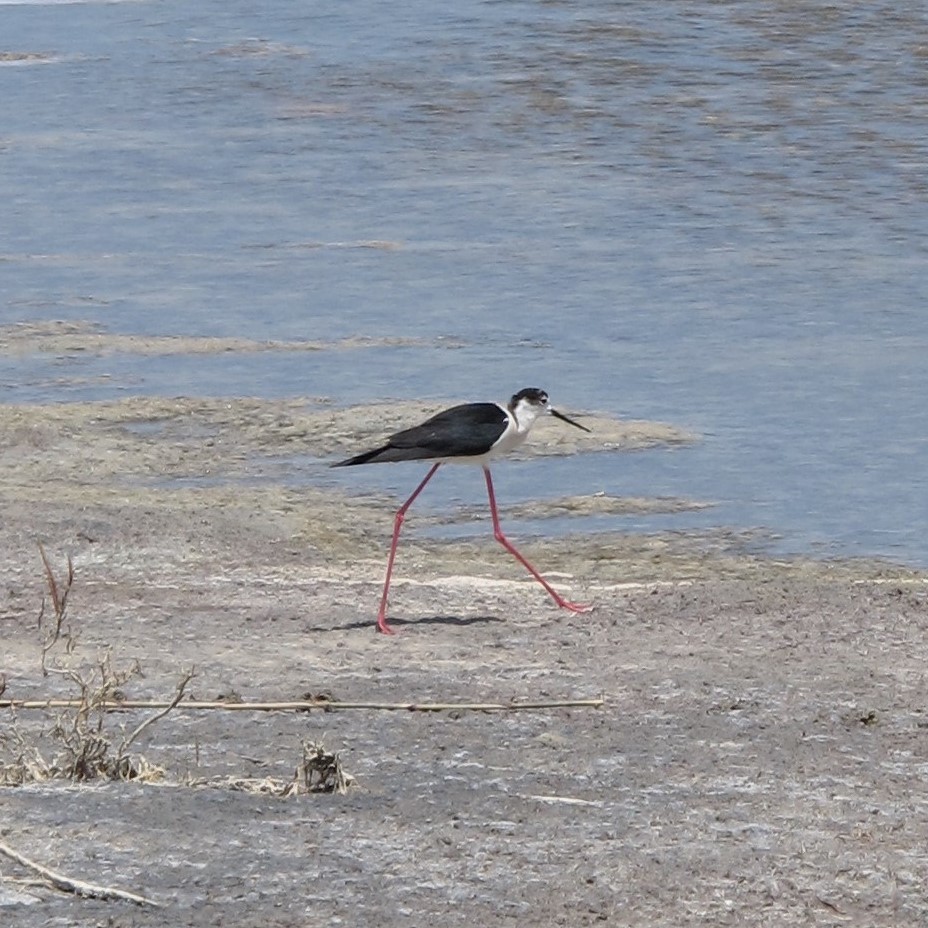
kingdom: Animalia
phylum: Chordata
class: Aves
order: Charadriiformes
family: Recurvirostridae
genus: Himantopus
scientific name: Himantopus himantopus
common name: Black-winged stilt
